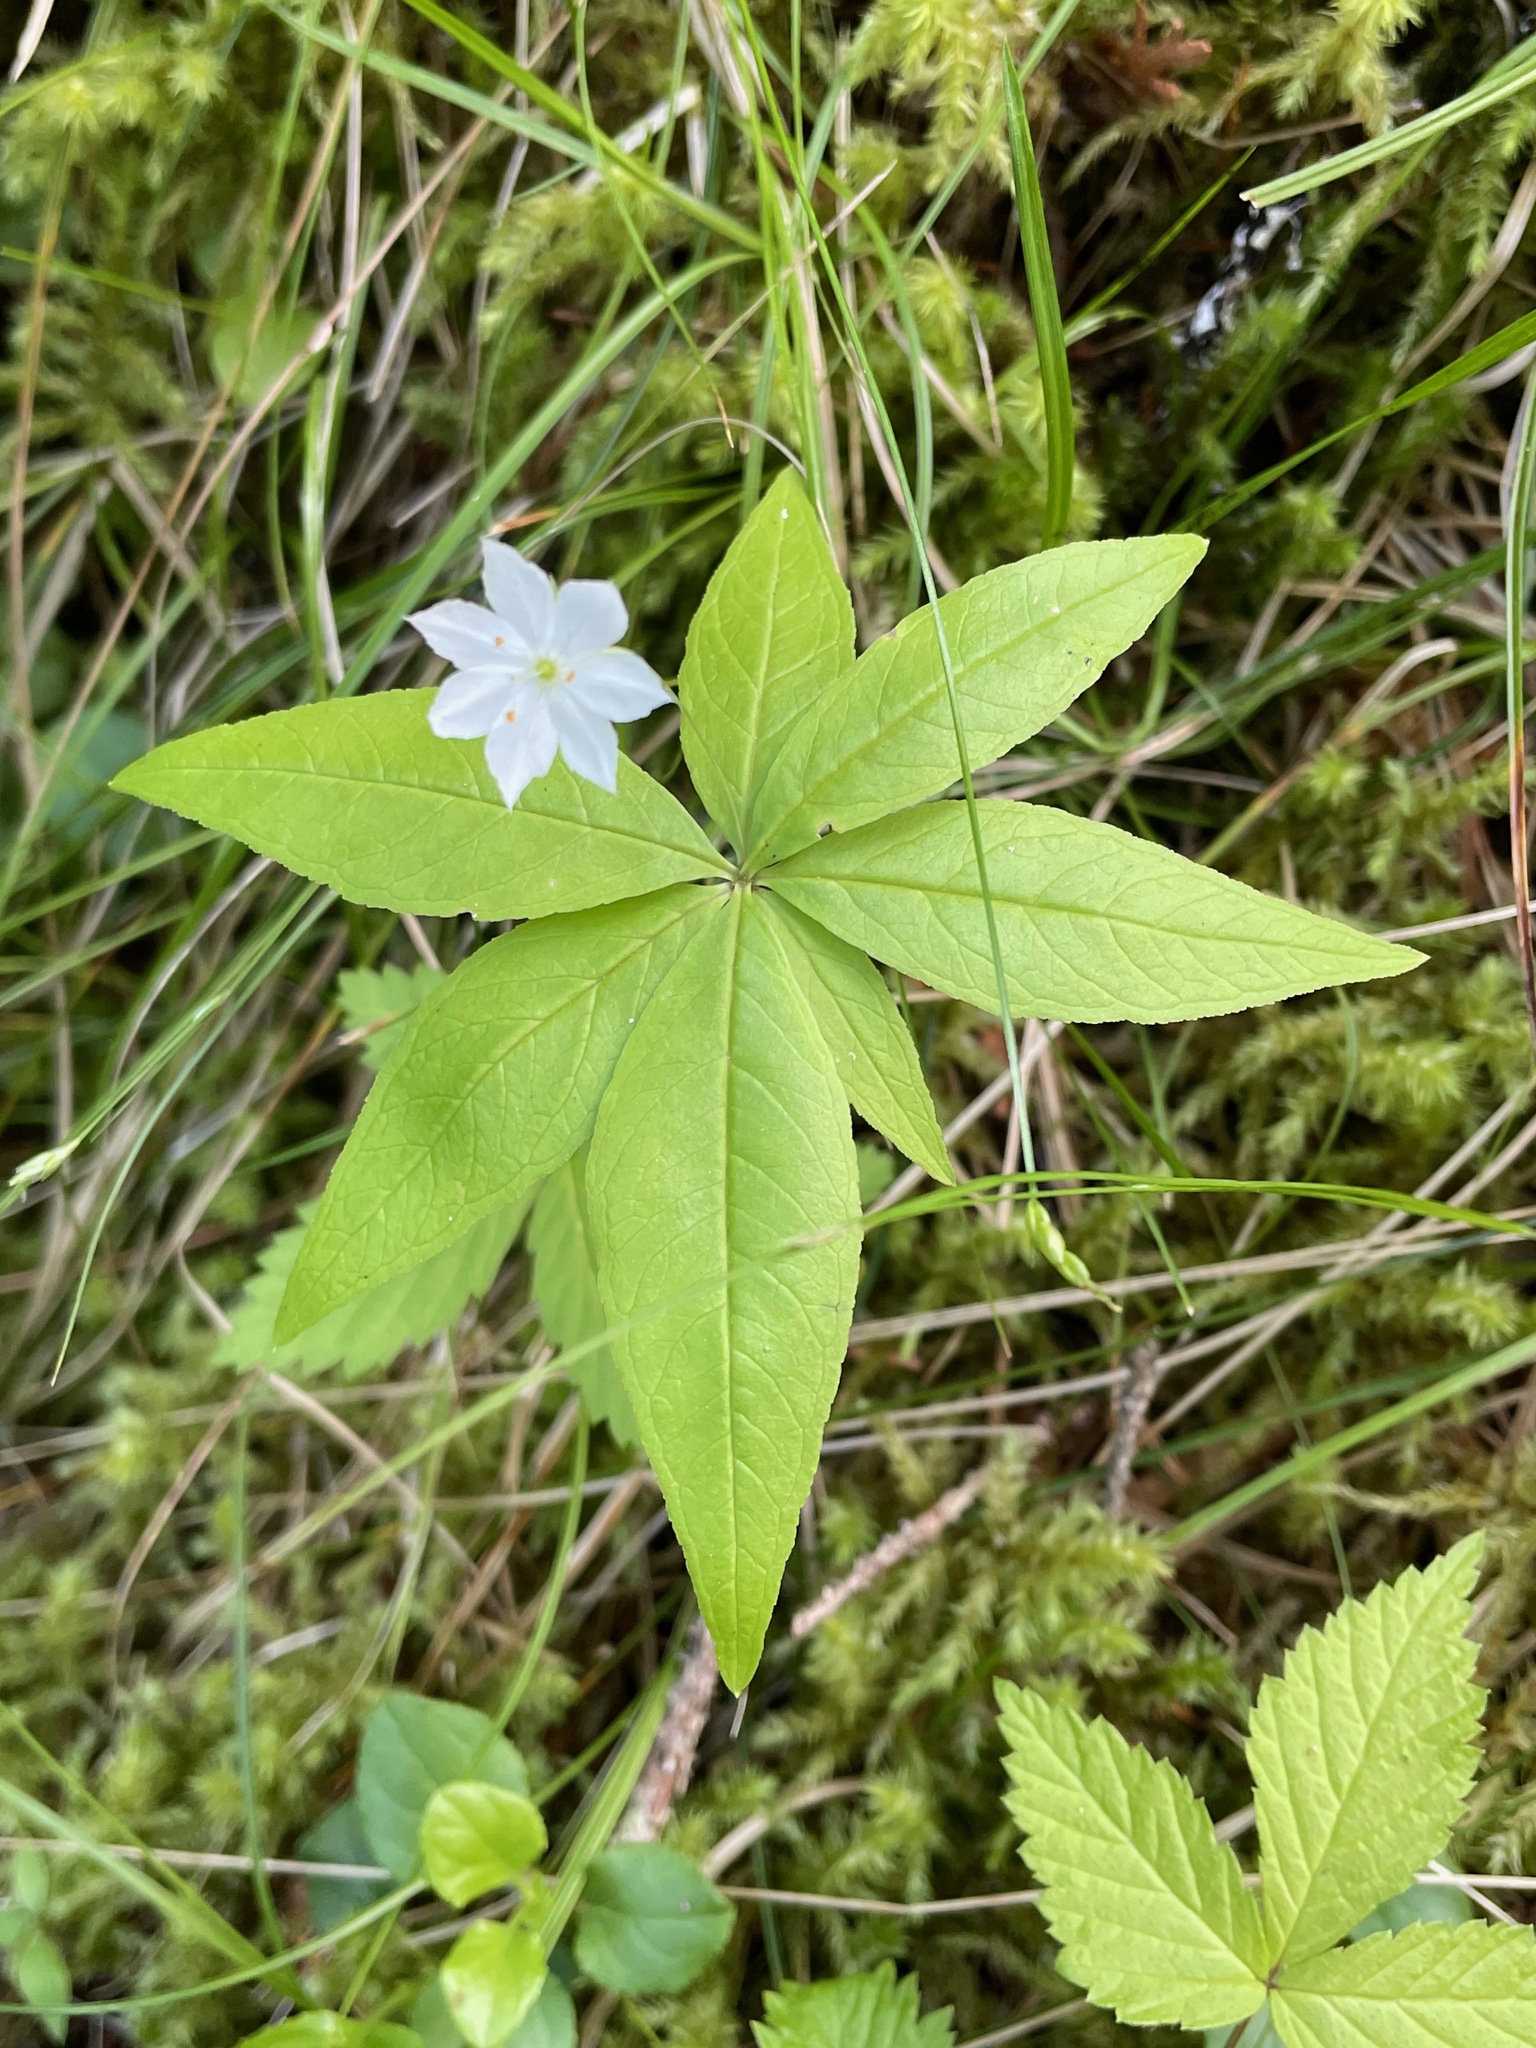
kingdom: Plantae
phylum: Tracheophyta
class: Magnoliopsida
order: Ericales
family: Primulaceae
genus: Lysimachia
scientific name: Lysimachia borealis
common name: American starflower
